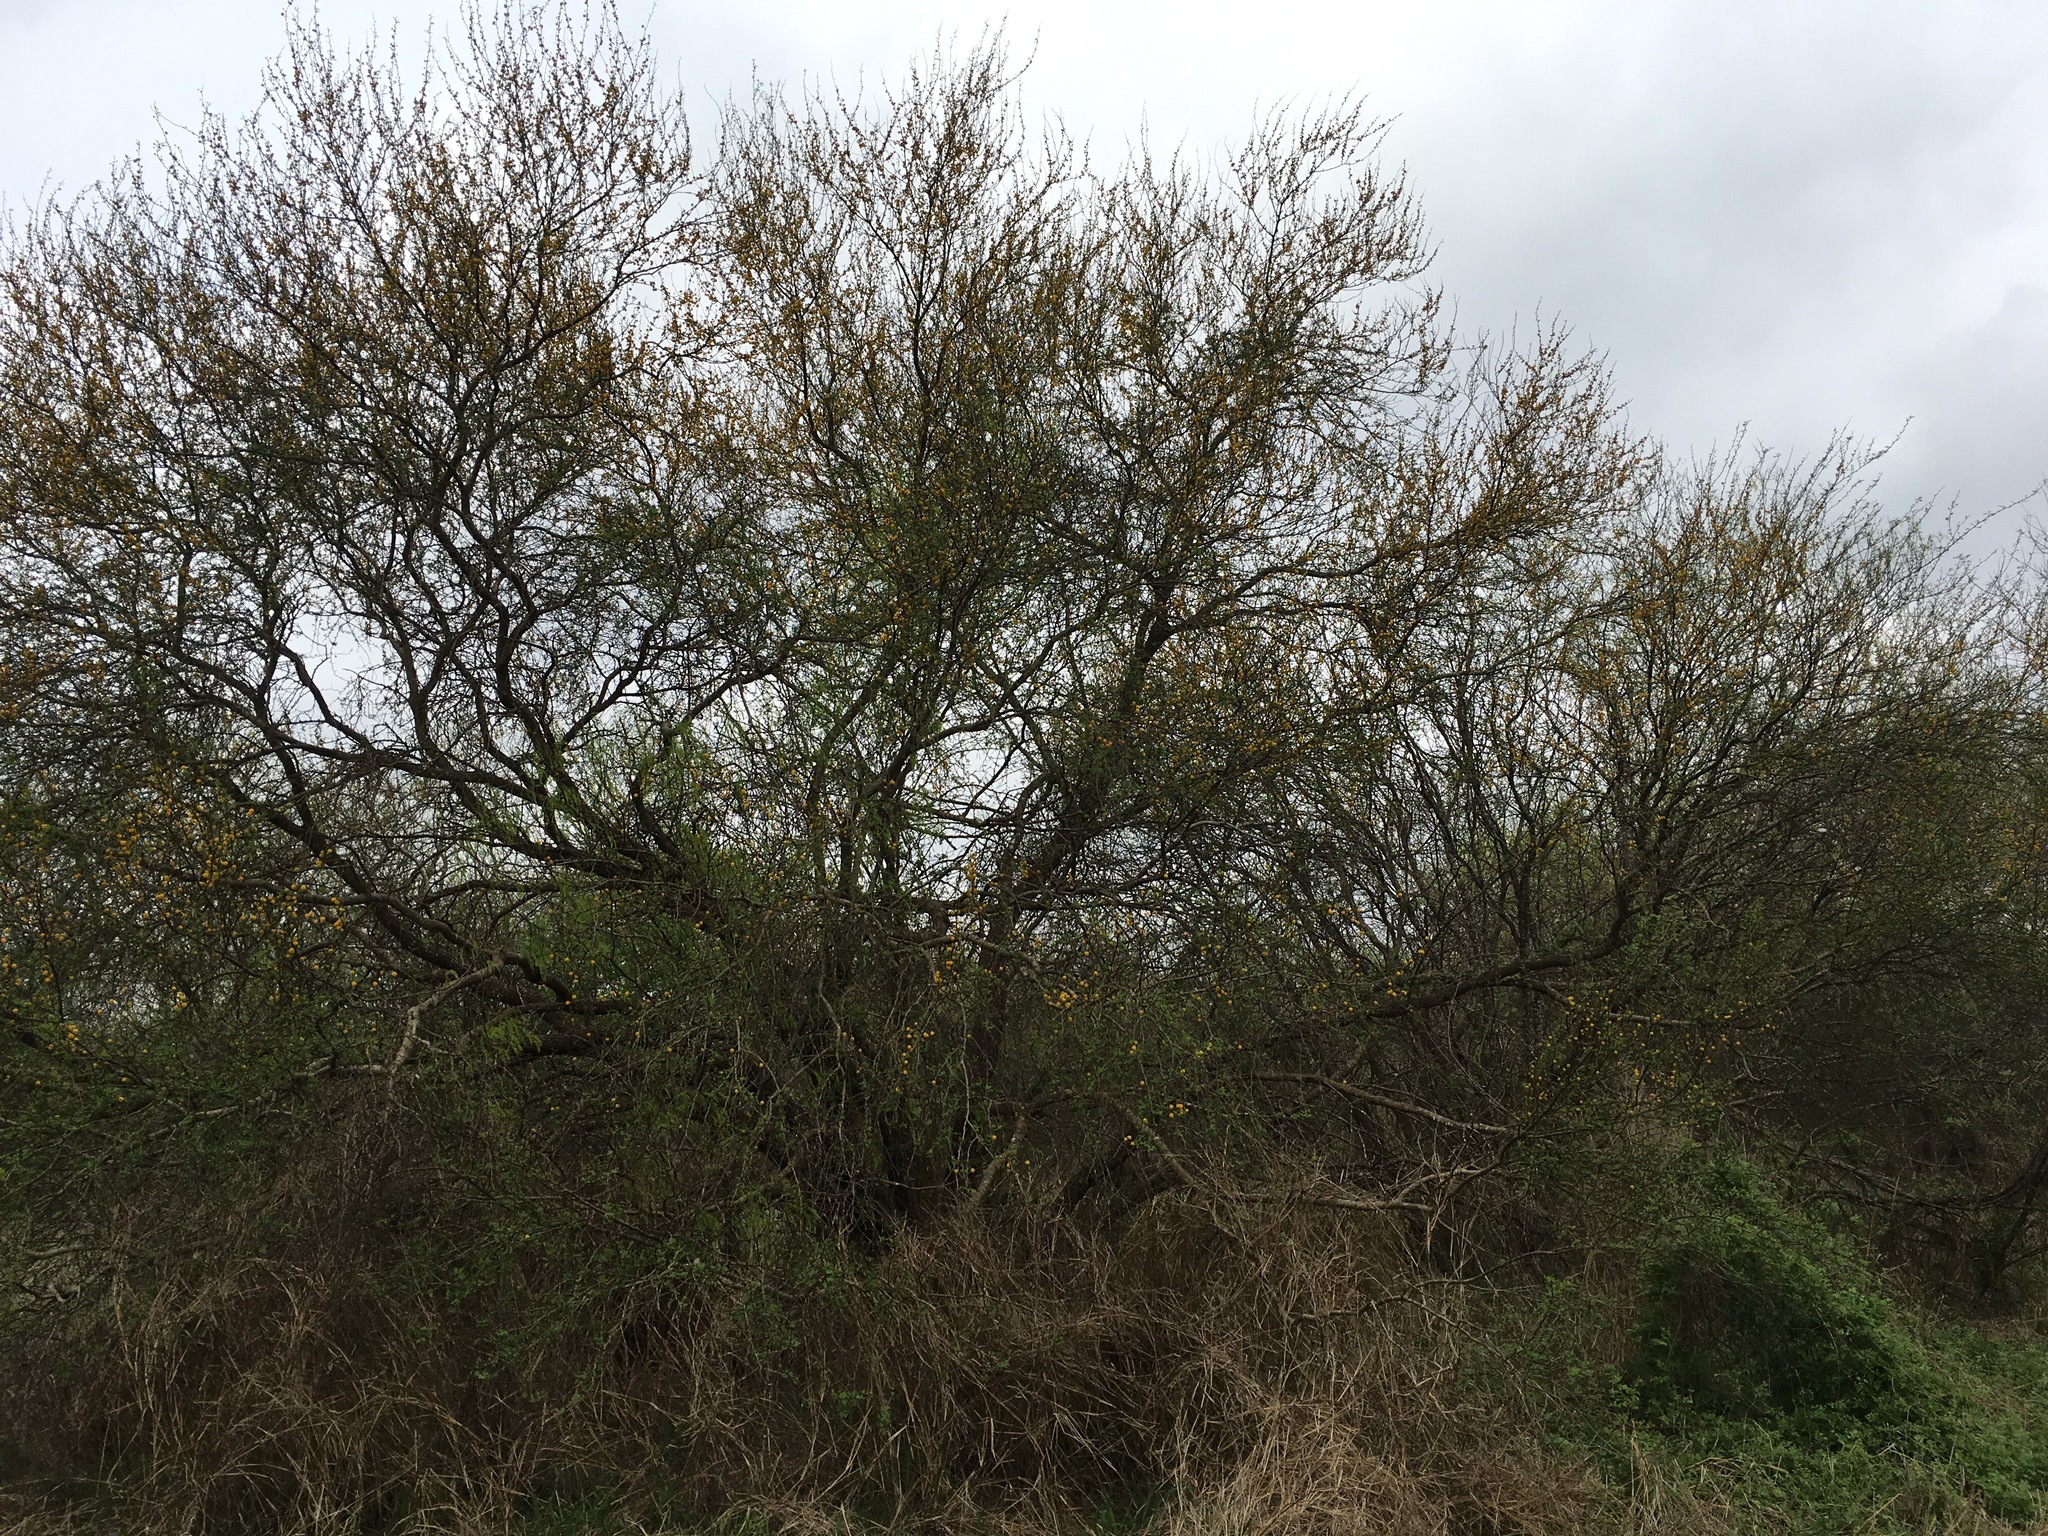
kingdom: Plantae
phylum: Tracheophyta
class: Magnoliopsida
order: Fabales
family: Fabaceae
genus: Vachellia
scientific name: Vachellia farnesiana
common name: Sweet acacia
